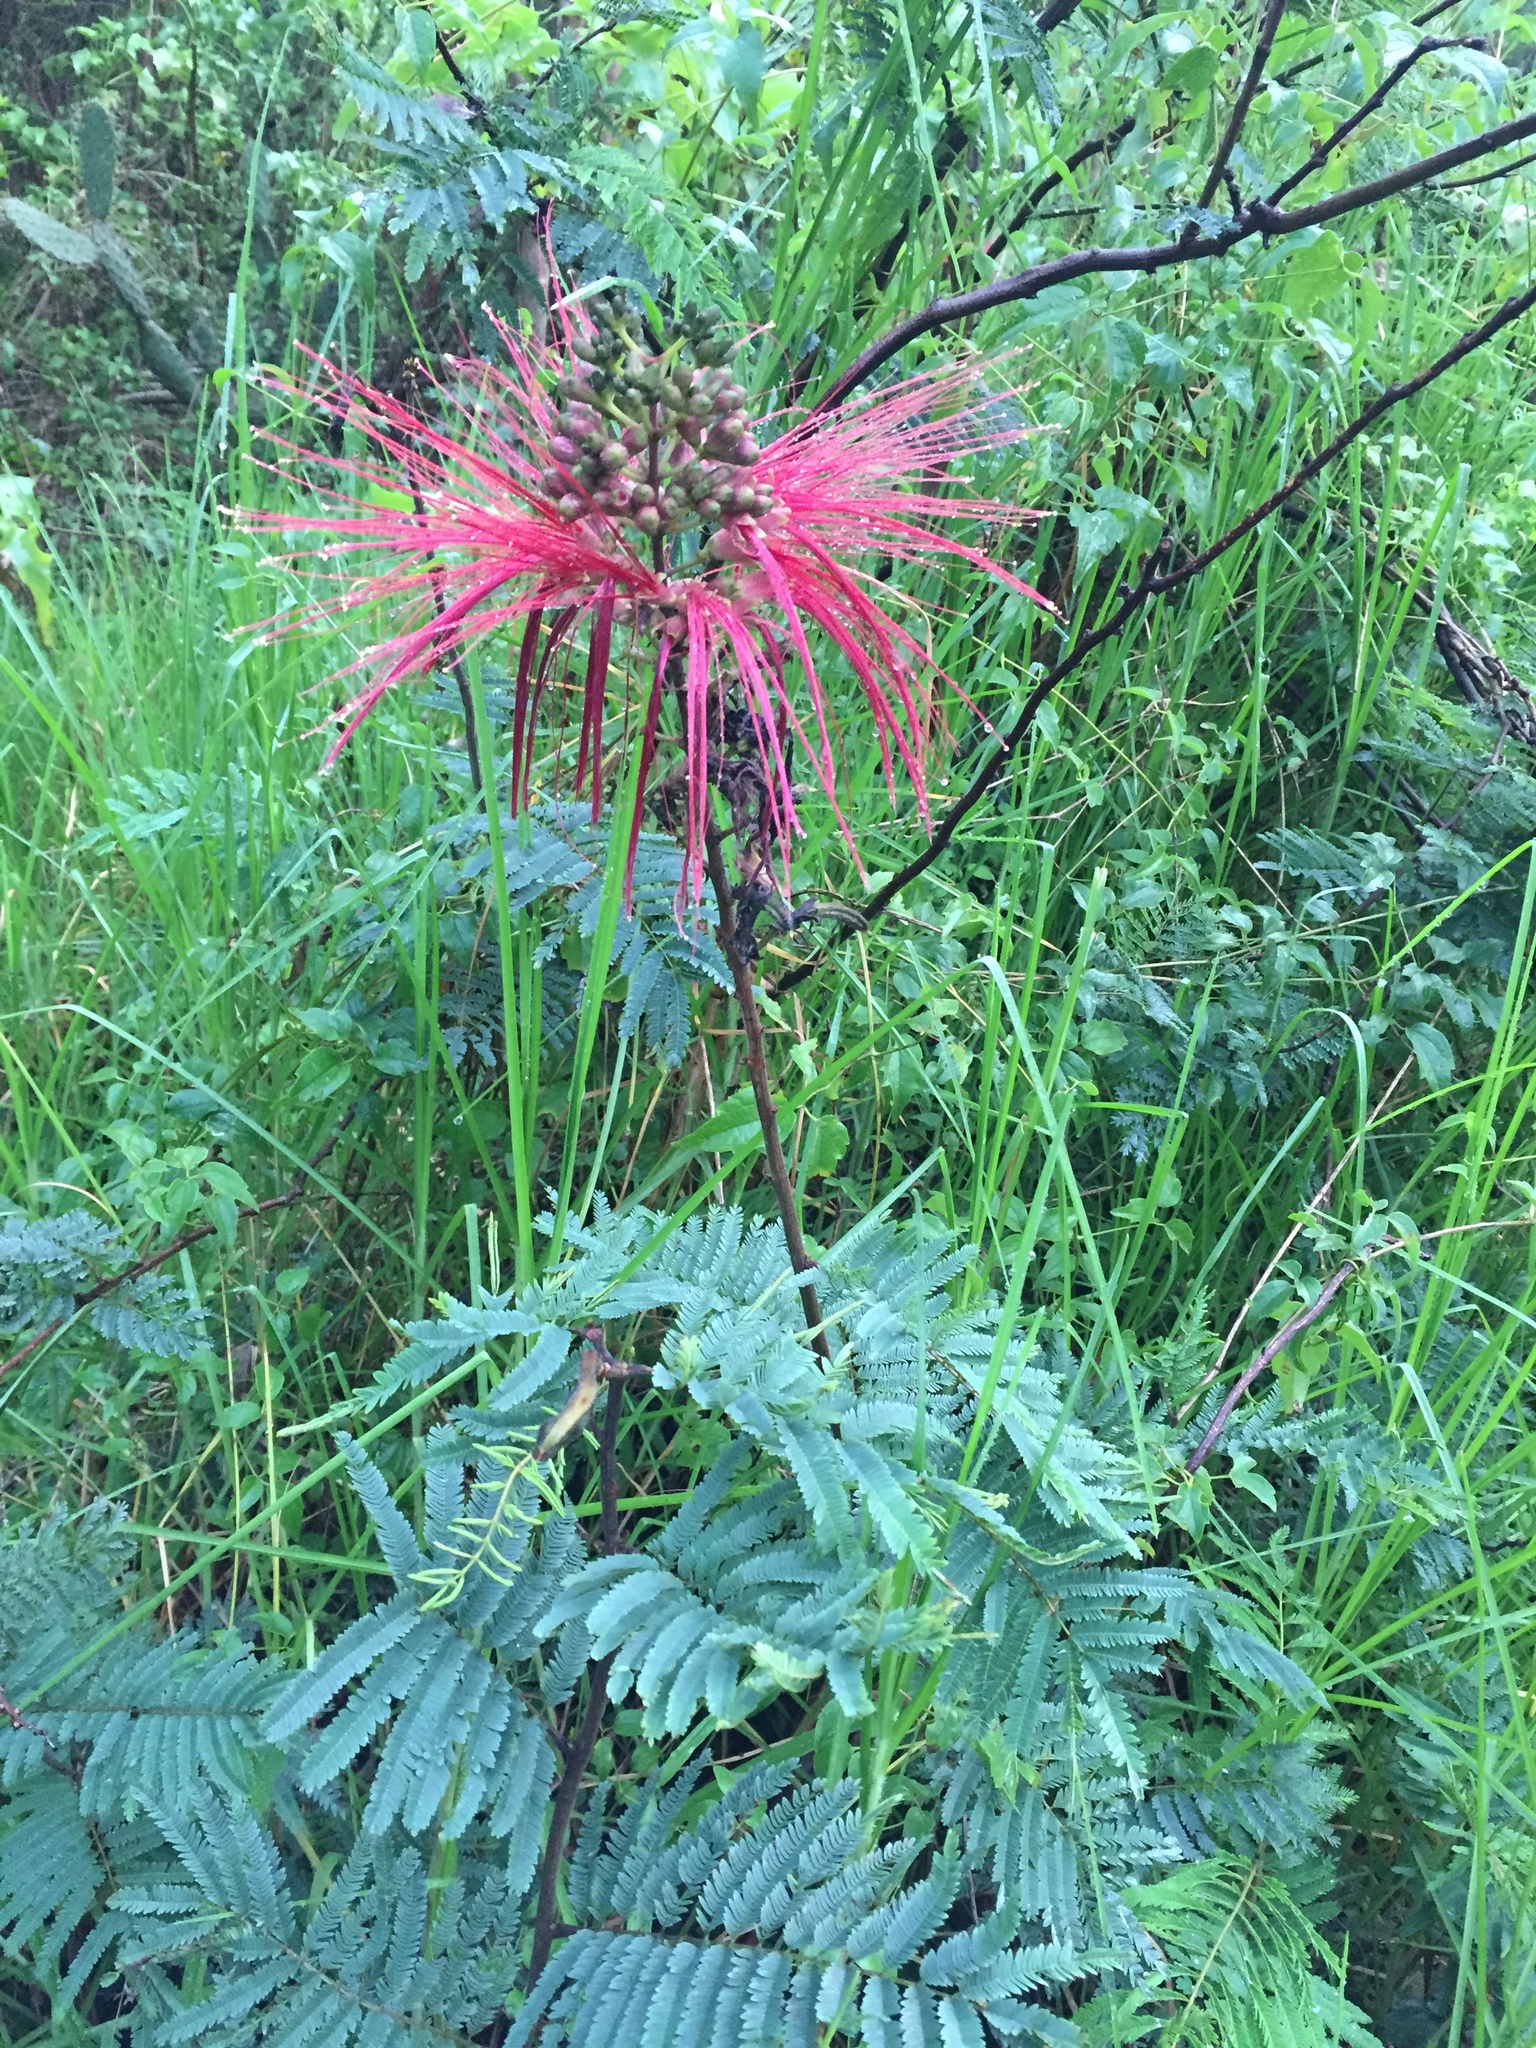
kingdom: Plantae
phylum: Tracheophyta
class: Magnoliopsida
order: Fabales
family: Fabaceae
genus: Calliandra
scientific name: Calliandra houstoniana
